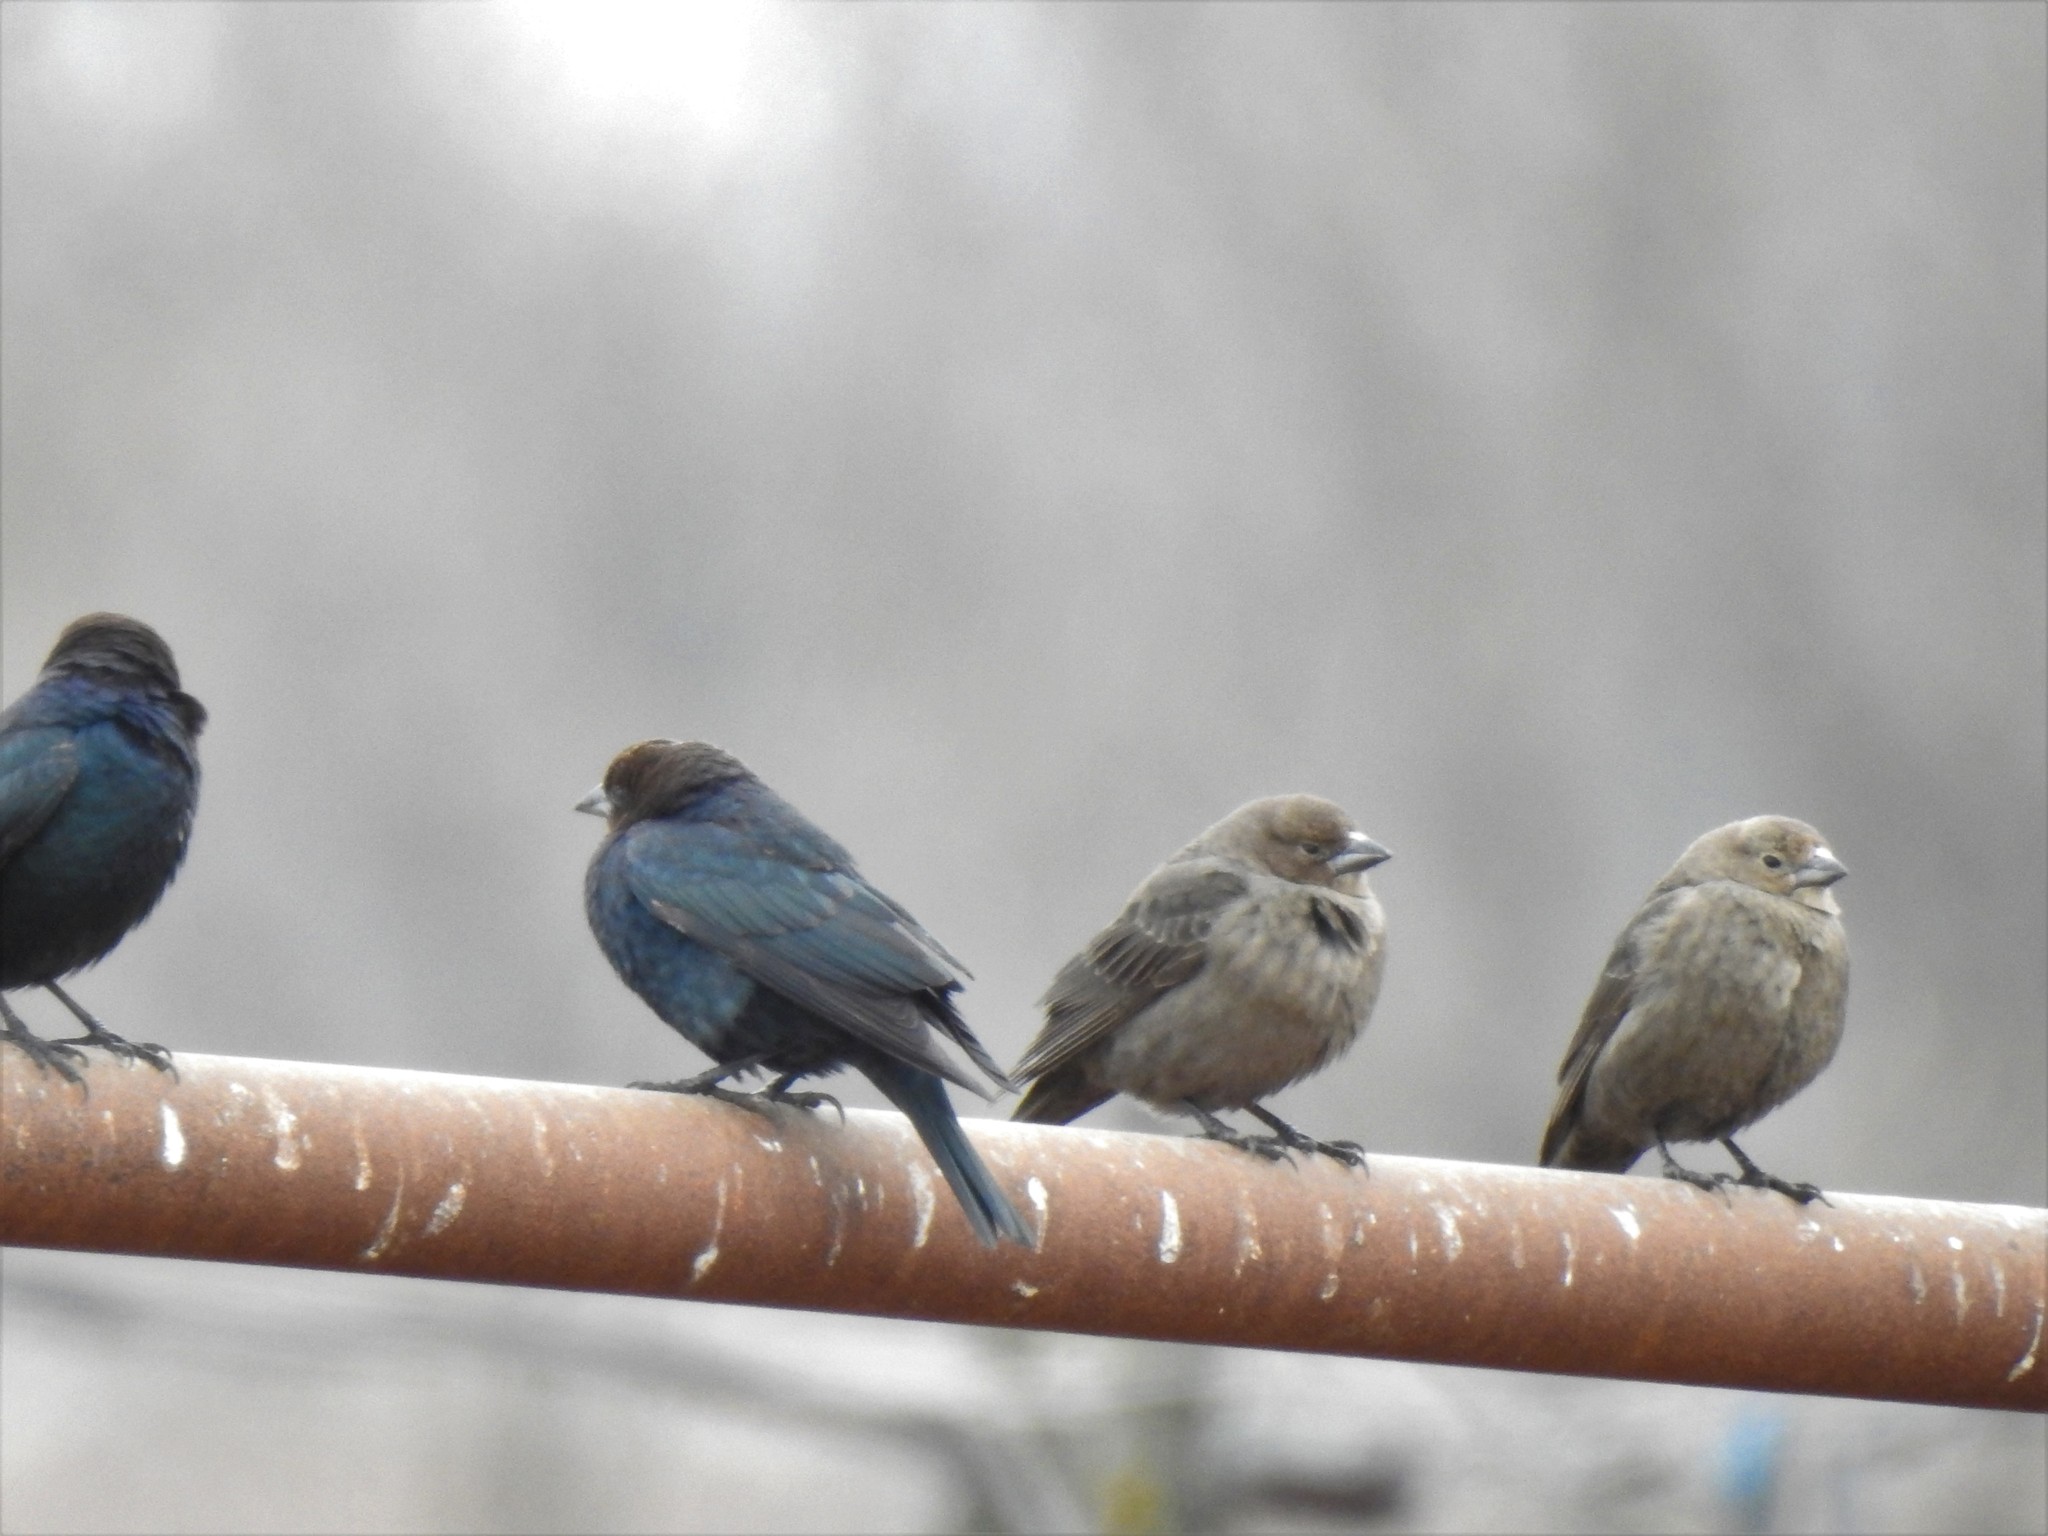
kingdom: Animalia
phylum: Chordata
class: Aves
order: Passeriformes
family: Icteridae
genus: Molothrus
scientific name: Molothrus ater
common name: Brown-headed cowbird
